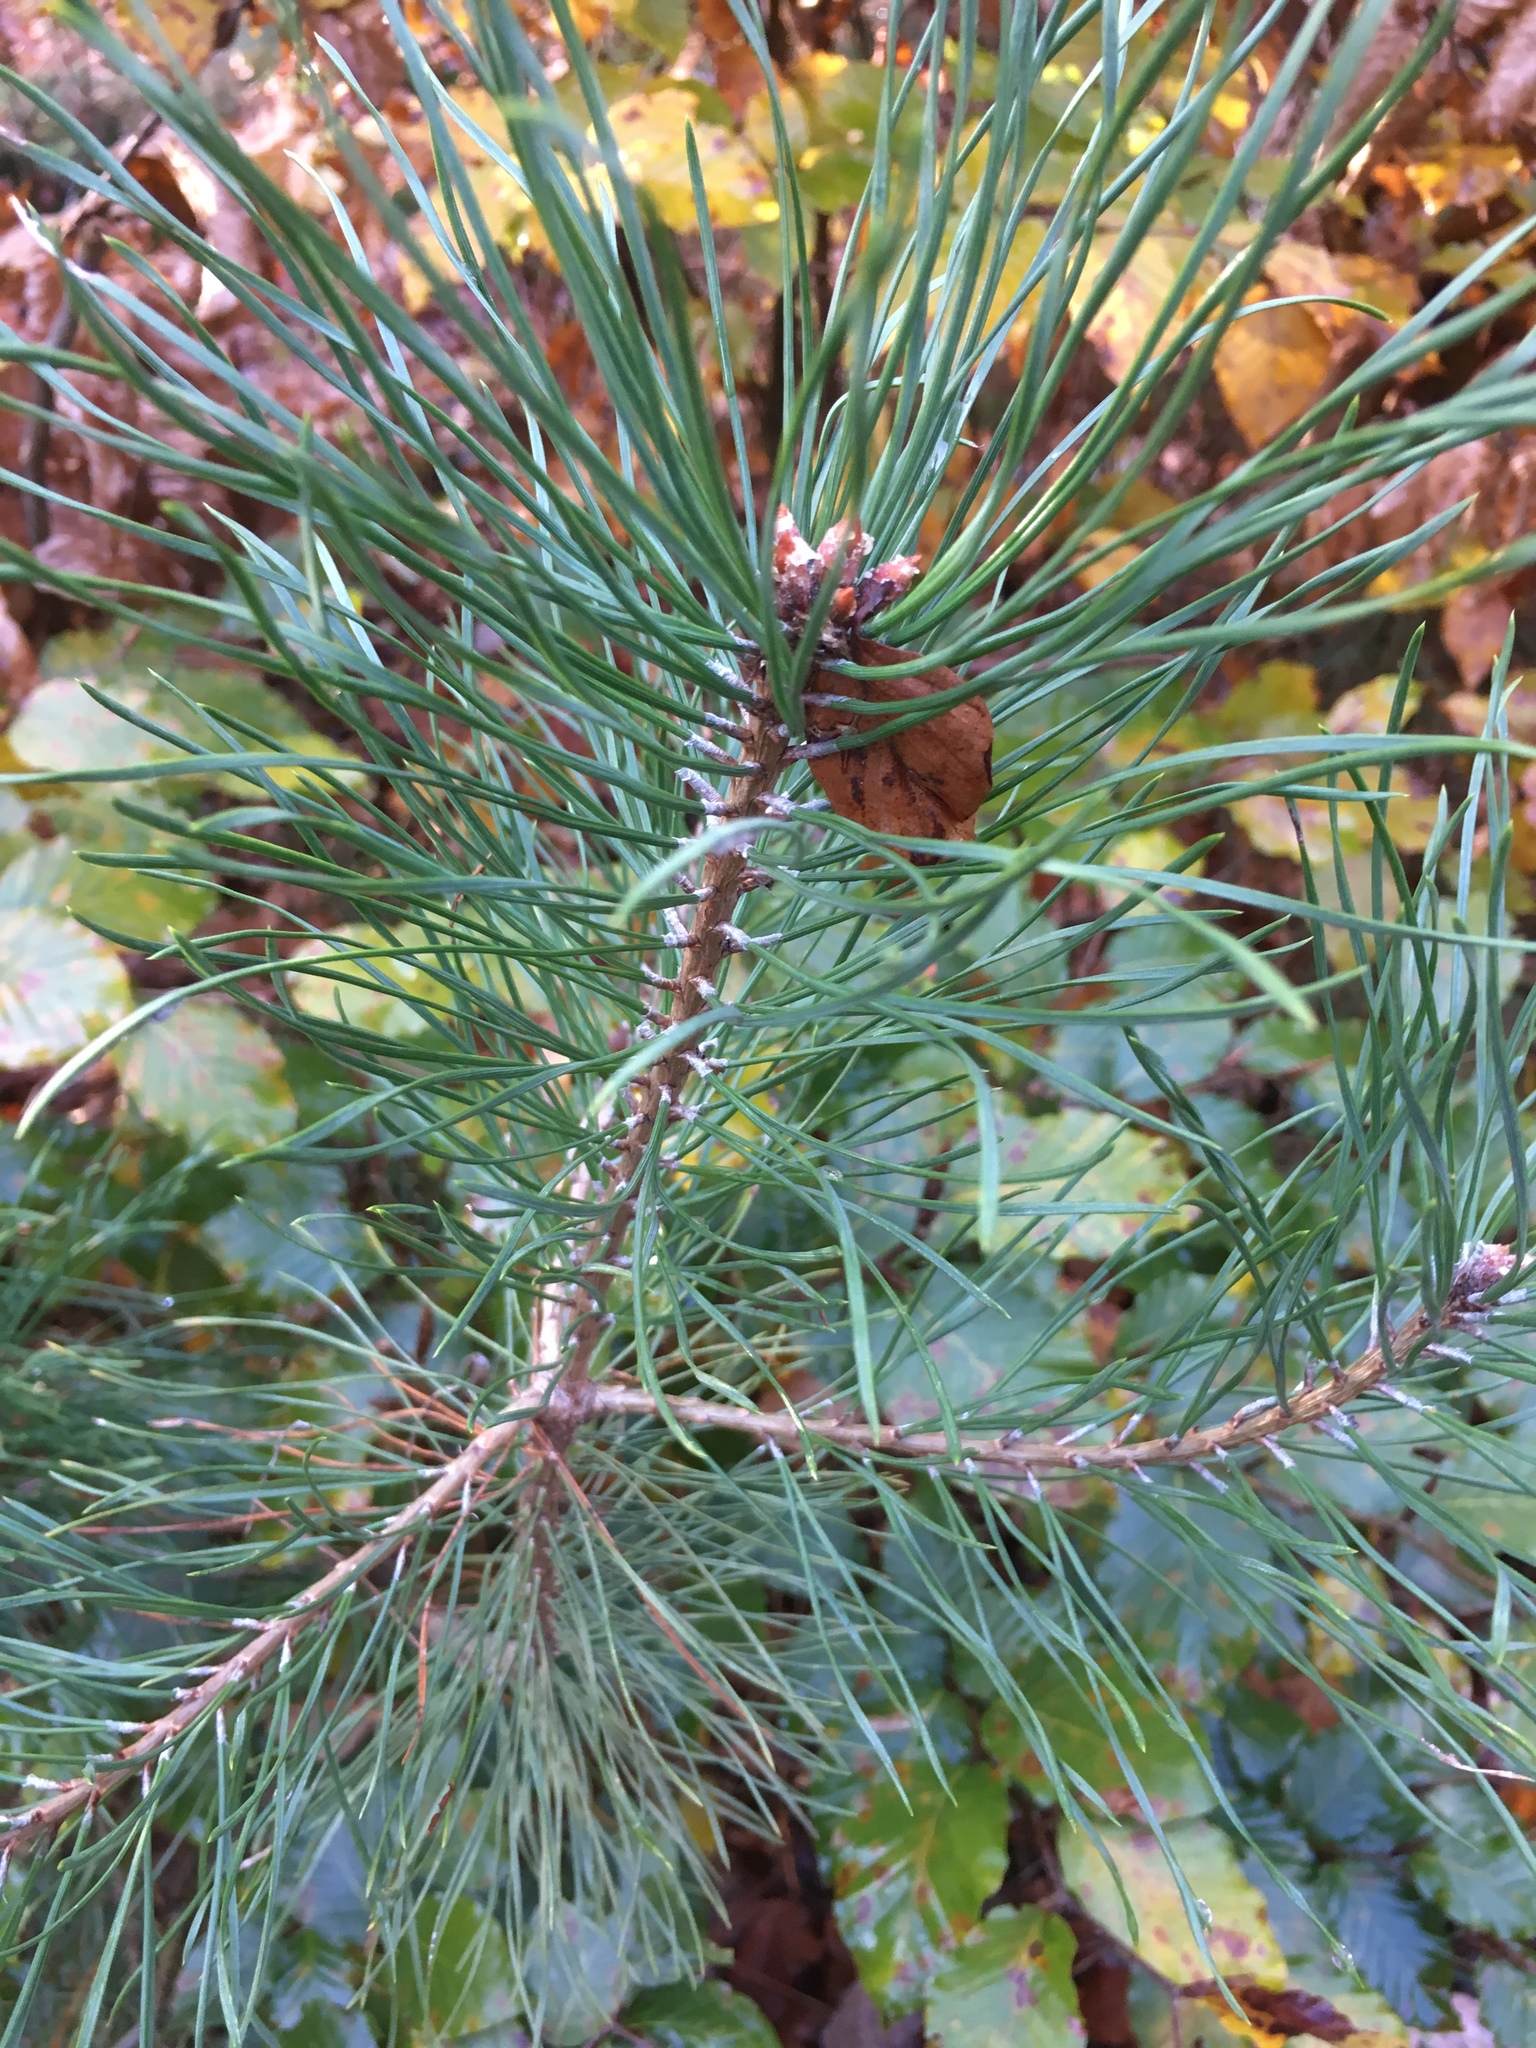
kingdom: Plantae
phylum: Tracheophyta
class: Pinopsida
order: Pinales
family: Pinaceae
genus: Pinus
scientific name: Pinus sylvestris
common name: Scots pine
